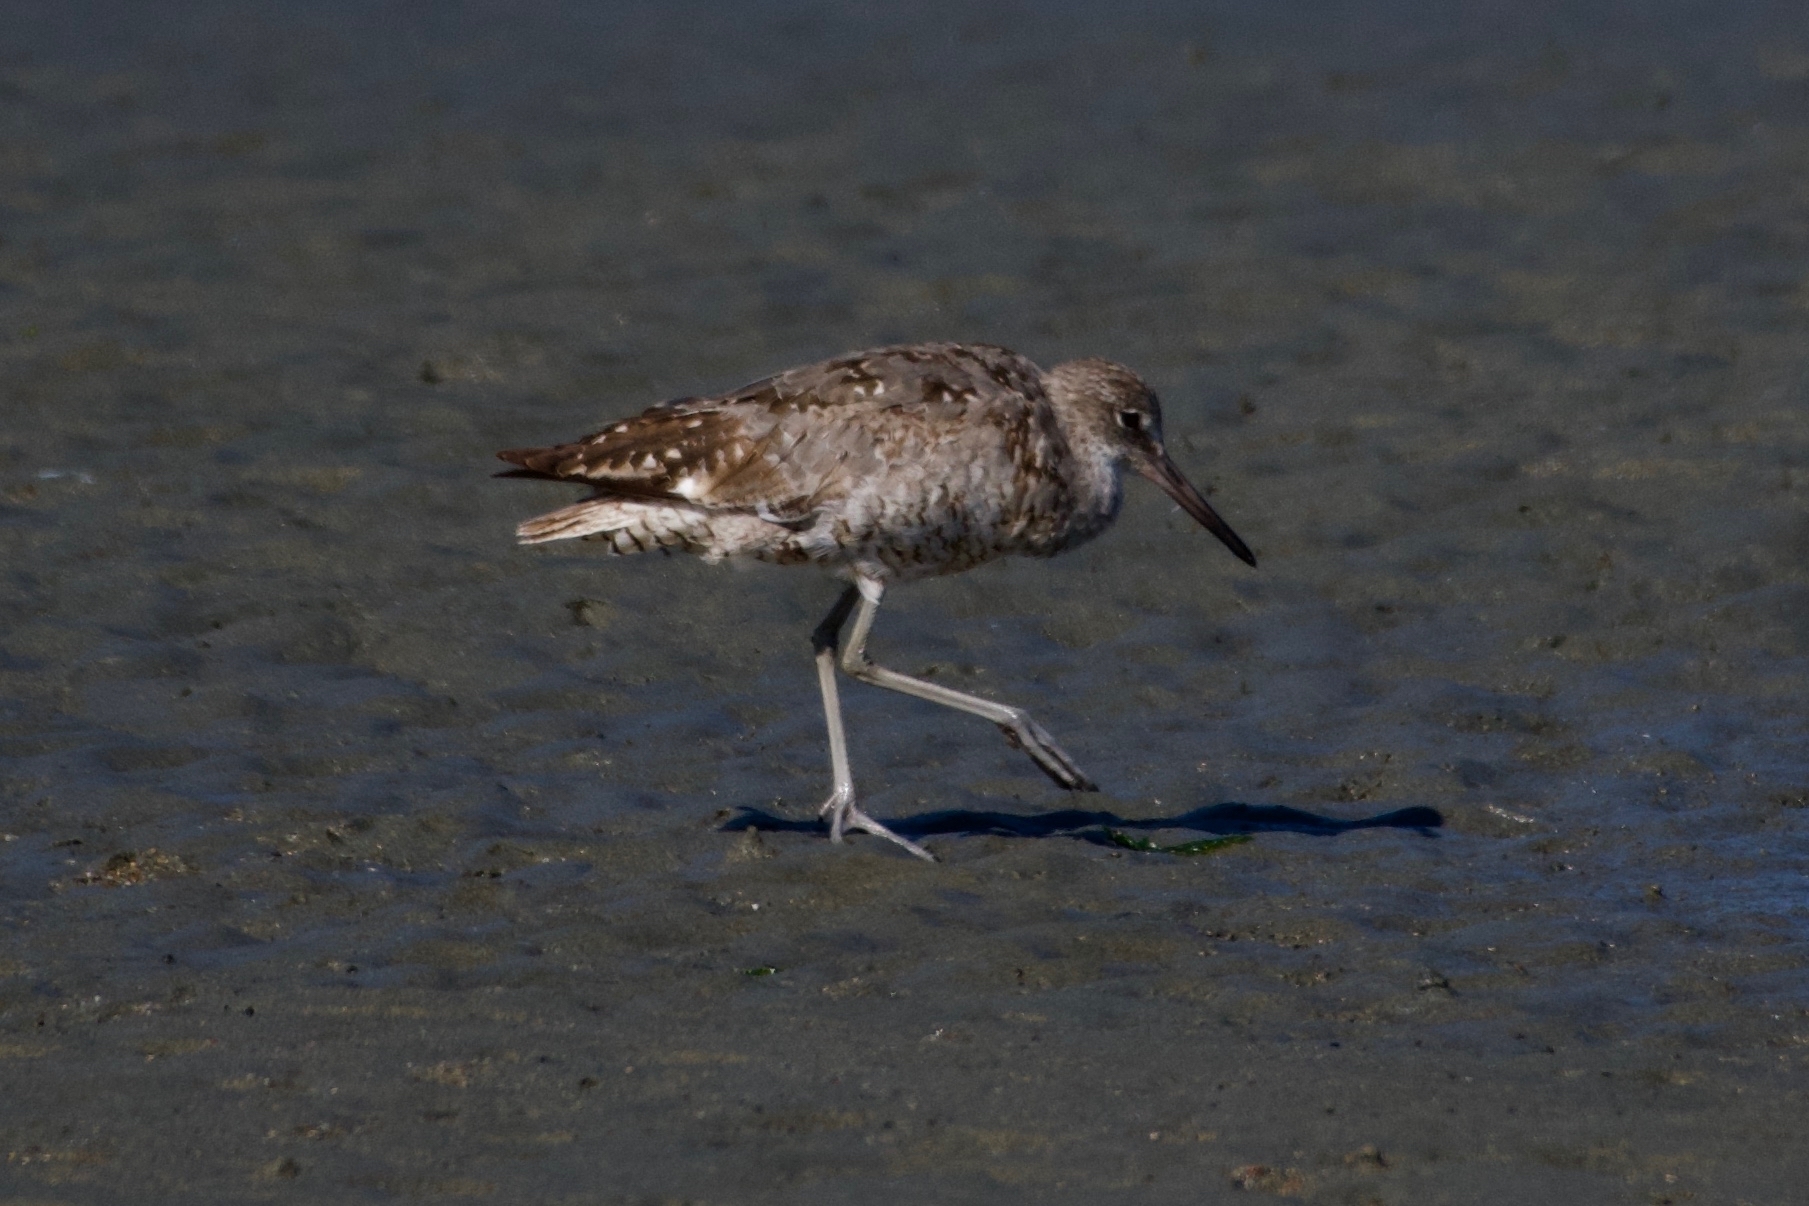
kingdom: Animalia
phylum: Chordata
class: Aves
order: Charadriiformes
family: Scolopacidae
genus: Tringa
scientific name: Tringa semipalmata
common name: Willet
